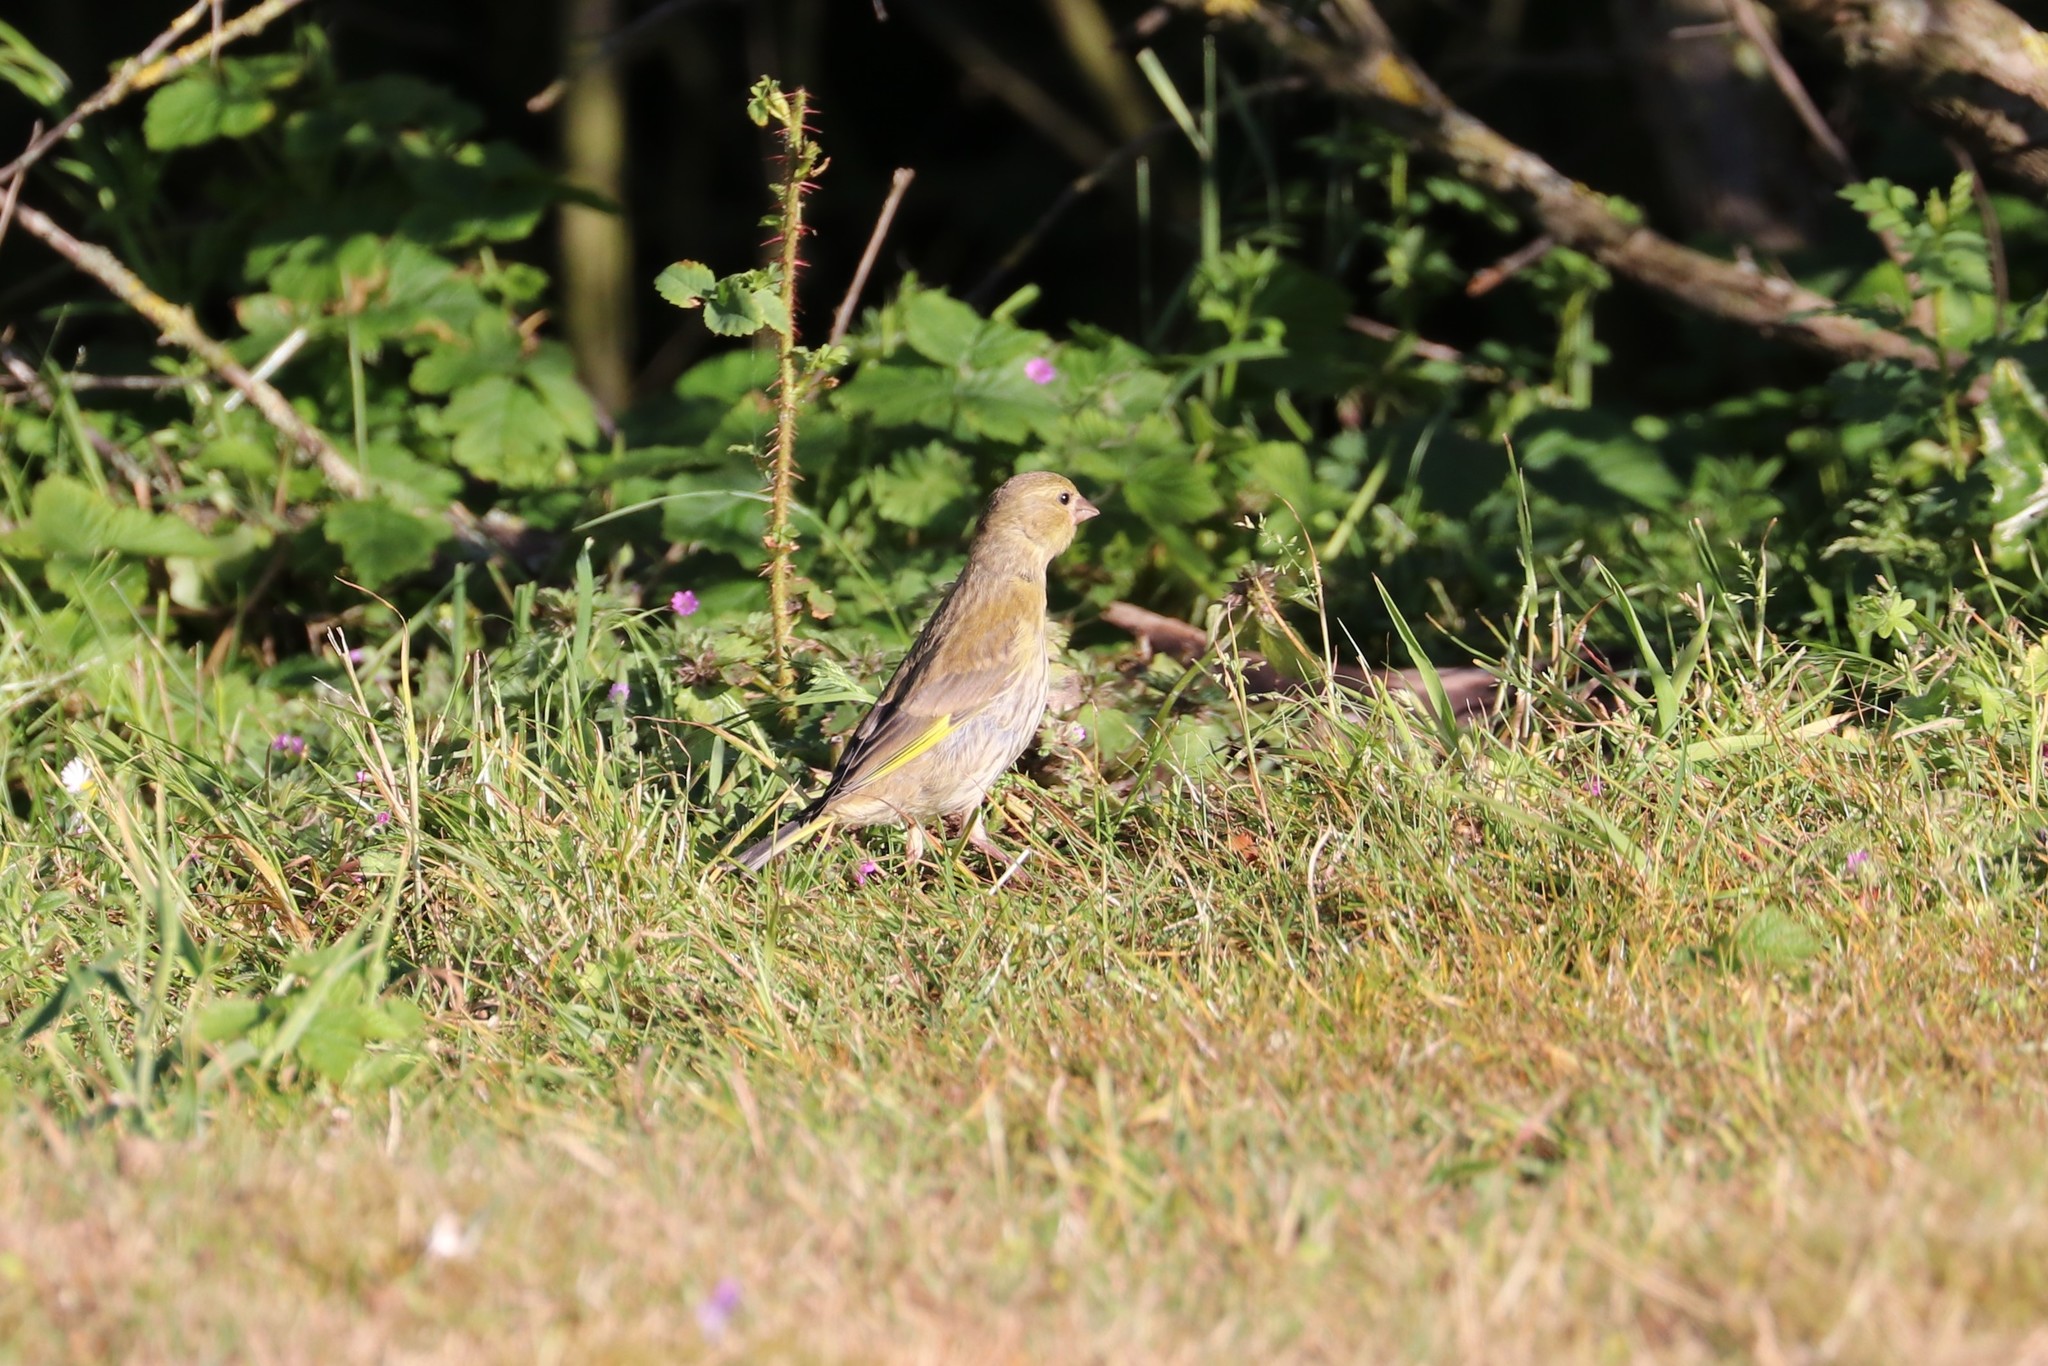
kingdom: Plantae
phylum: Tracheophyta
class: Liliopsida
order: Poales
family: Poaceae
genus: Chloris
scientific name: Chloris chloris
